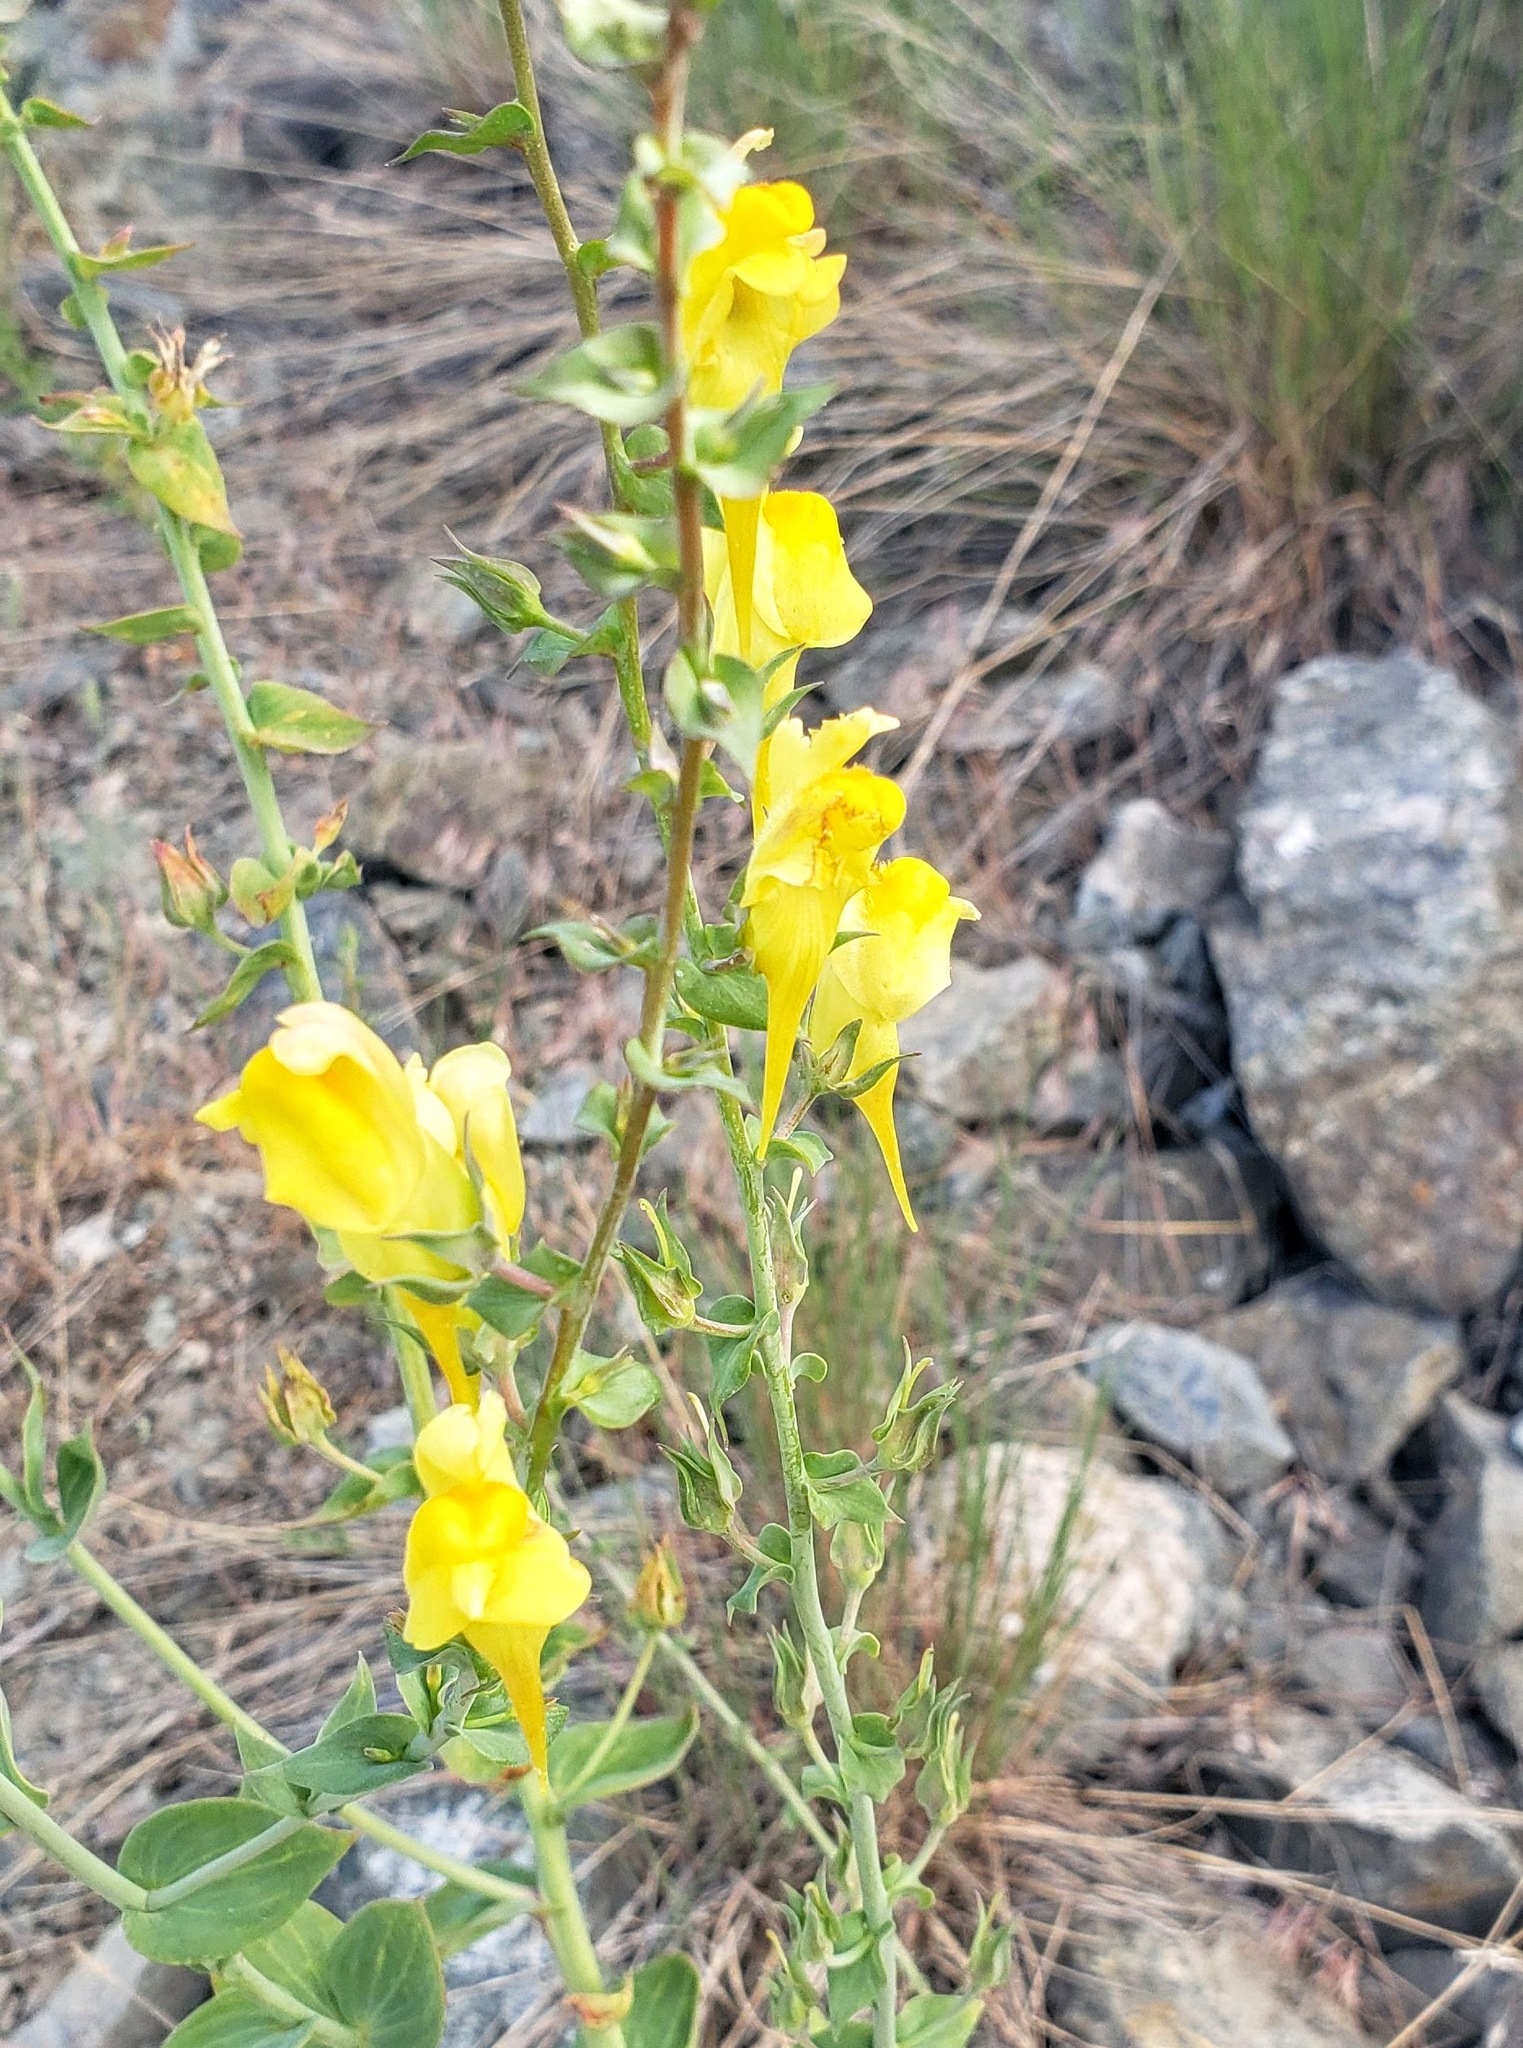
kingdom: Plantae
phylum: Tracheophyta
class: Magnoliopsida
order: Lamiales
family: Plantaginaceae
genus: Linaria
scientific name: Linaria dalmatica
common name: Dalmatian toadflax
